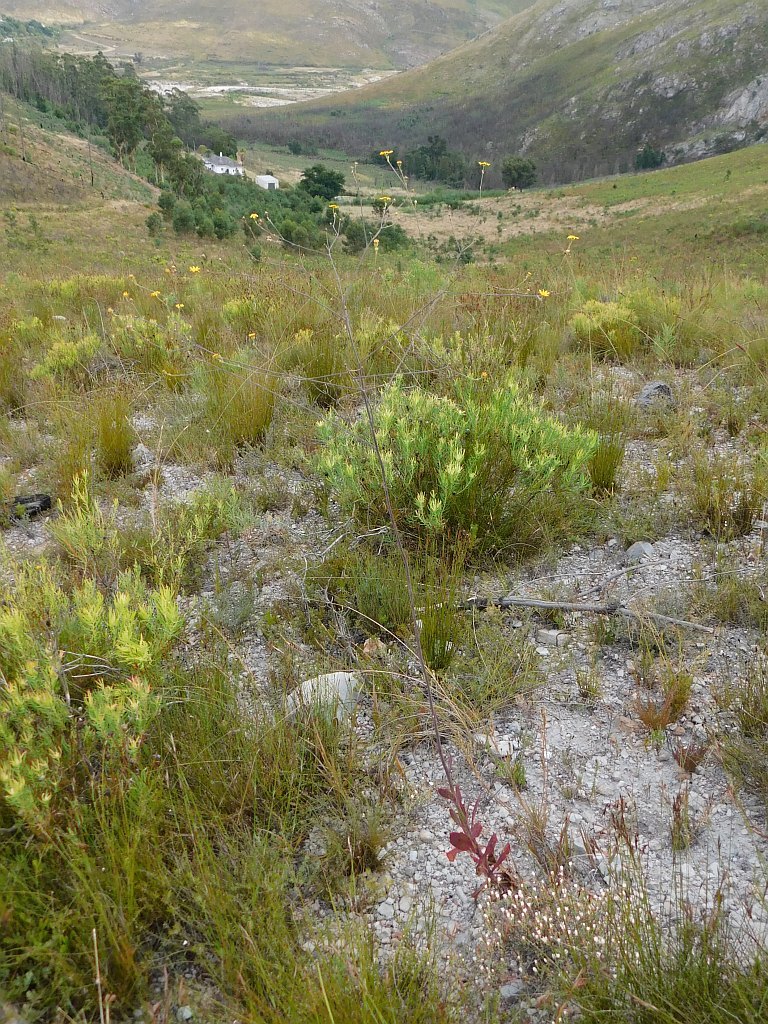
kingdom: Plantae
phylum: Tracheophyta
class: Magnoliopsida
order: Asterales
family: Asteraceae
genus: Othonna
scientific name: Othonna quinquedentata
